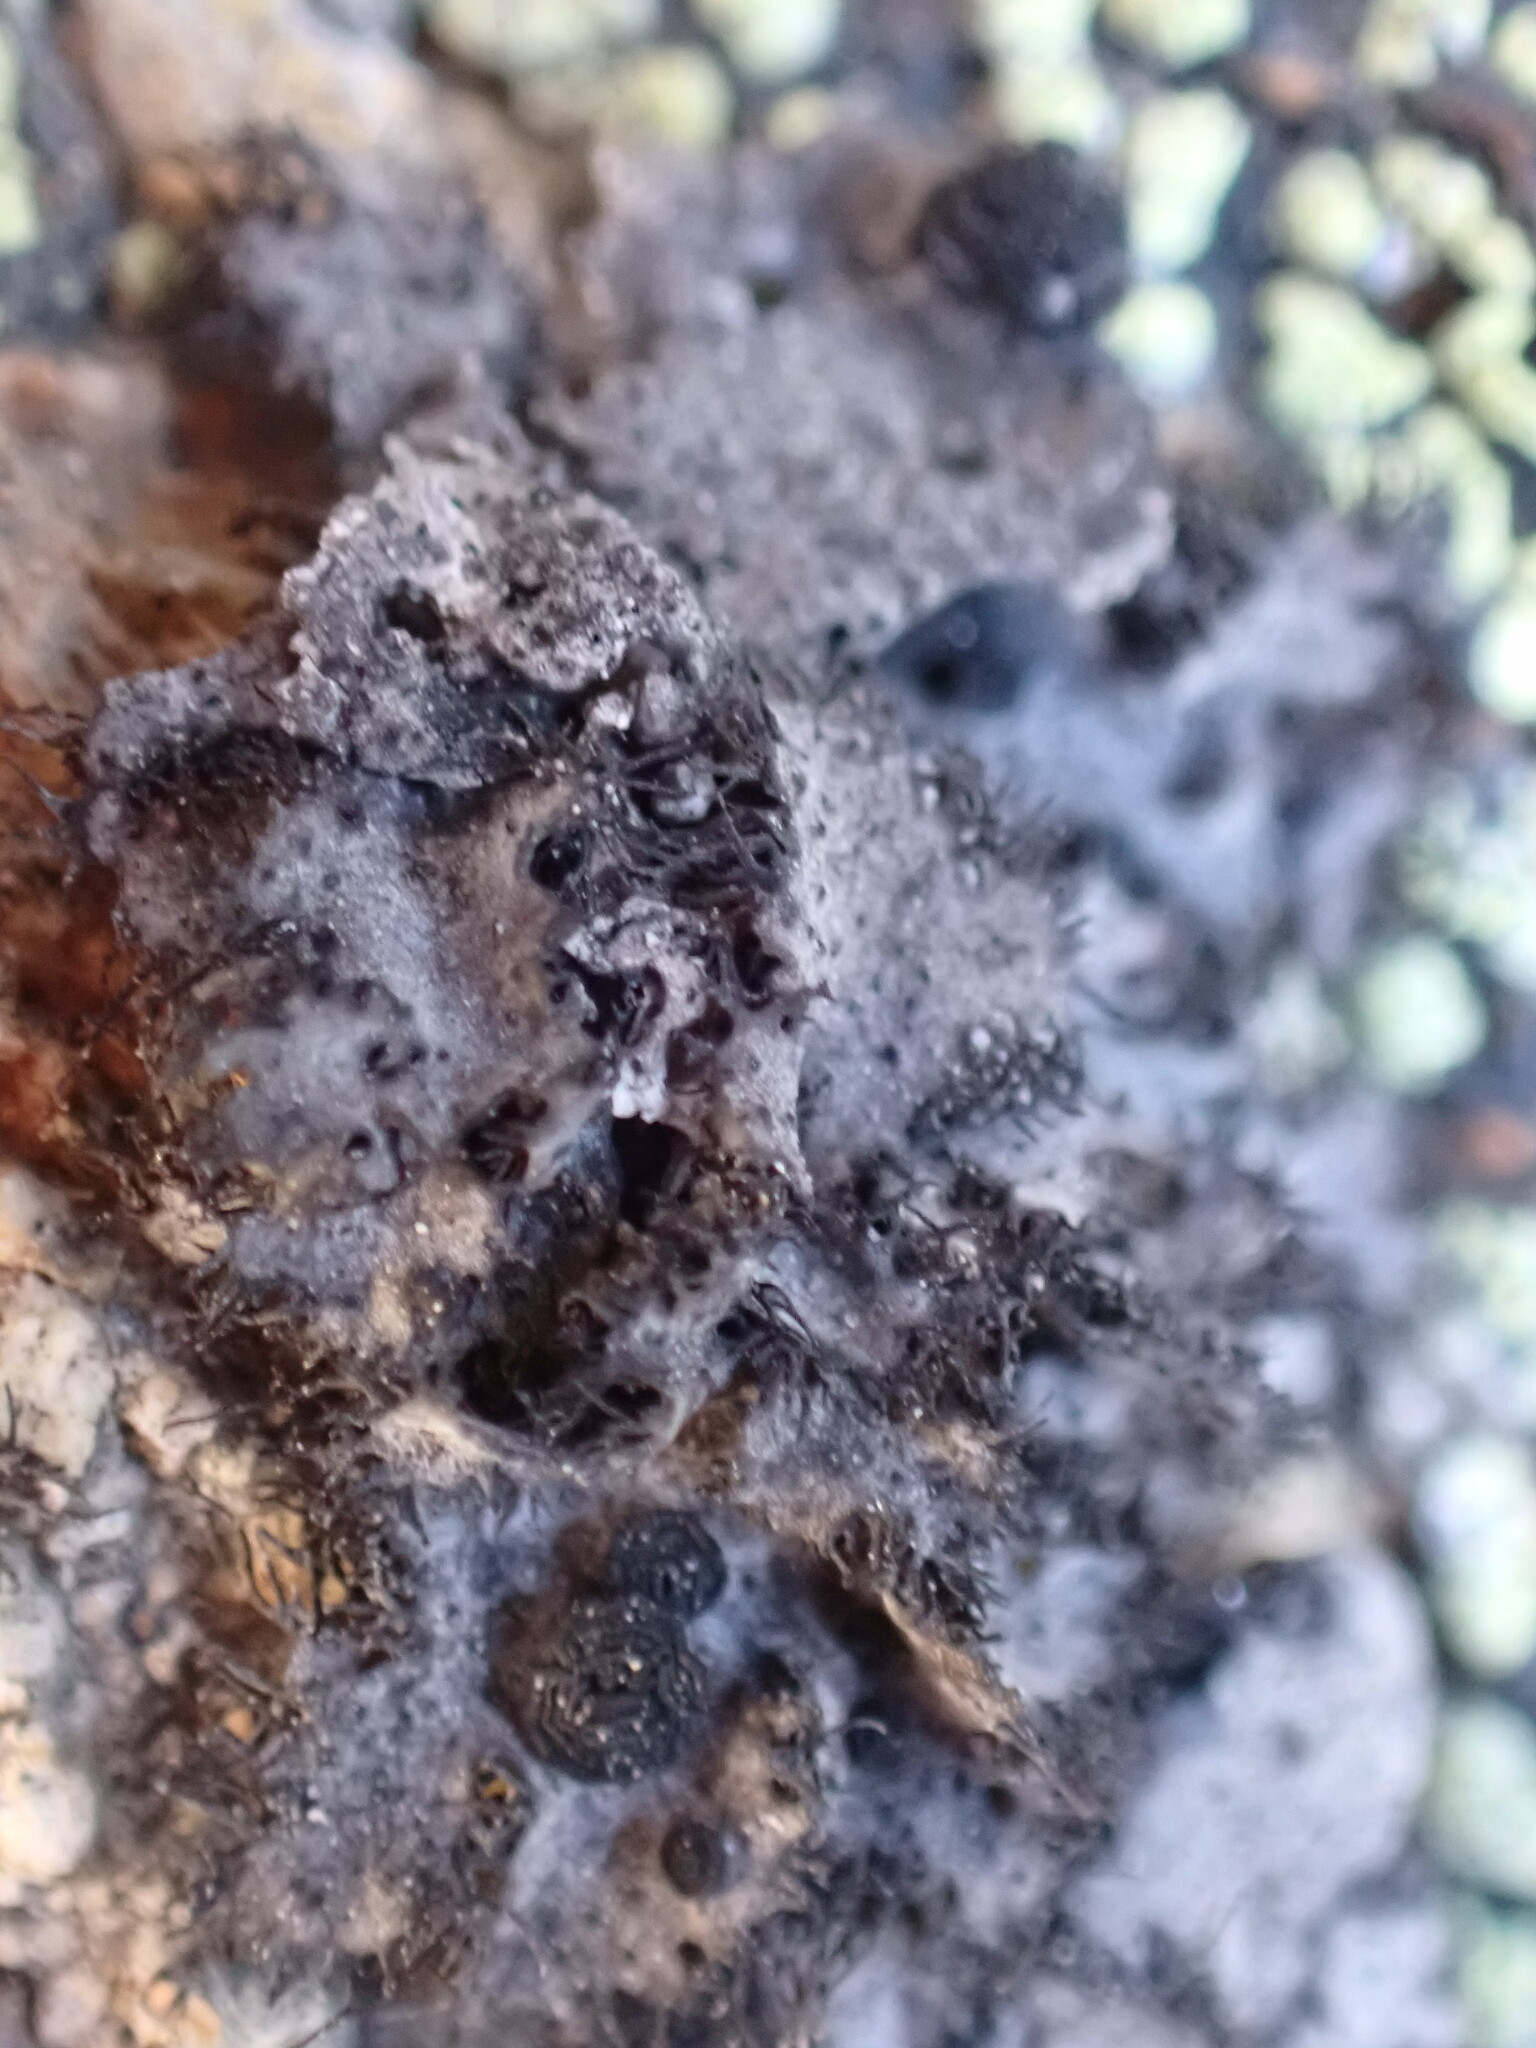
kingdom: Fungi
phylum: Ascomycota
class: Lecanoromycetes
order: Umbilicariales
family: Umbilicariaceae
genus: Umbilicaria
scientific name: Umbilicaria cylindrica
